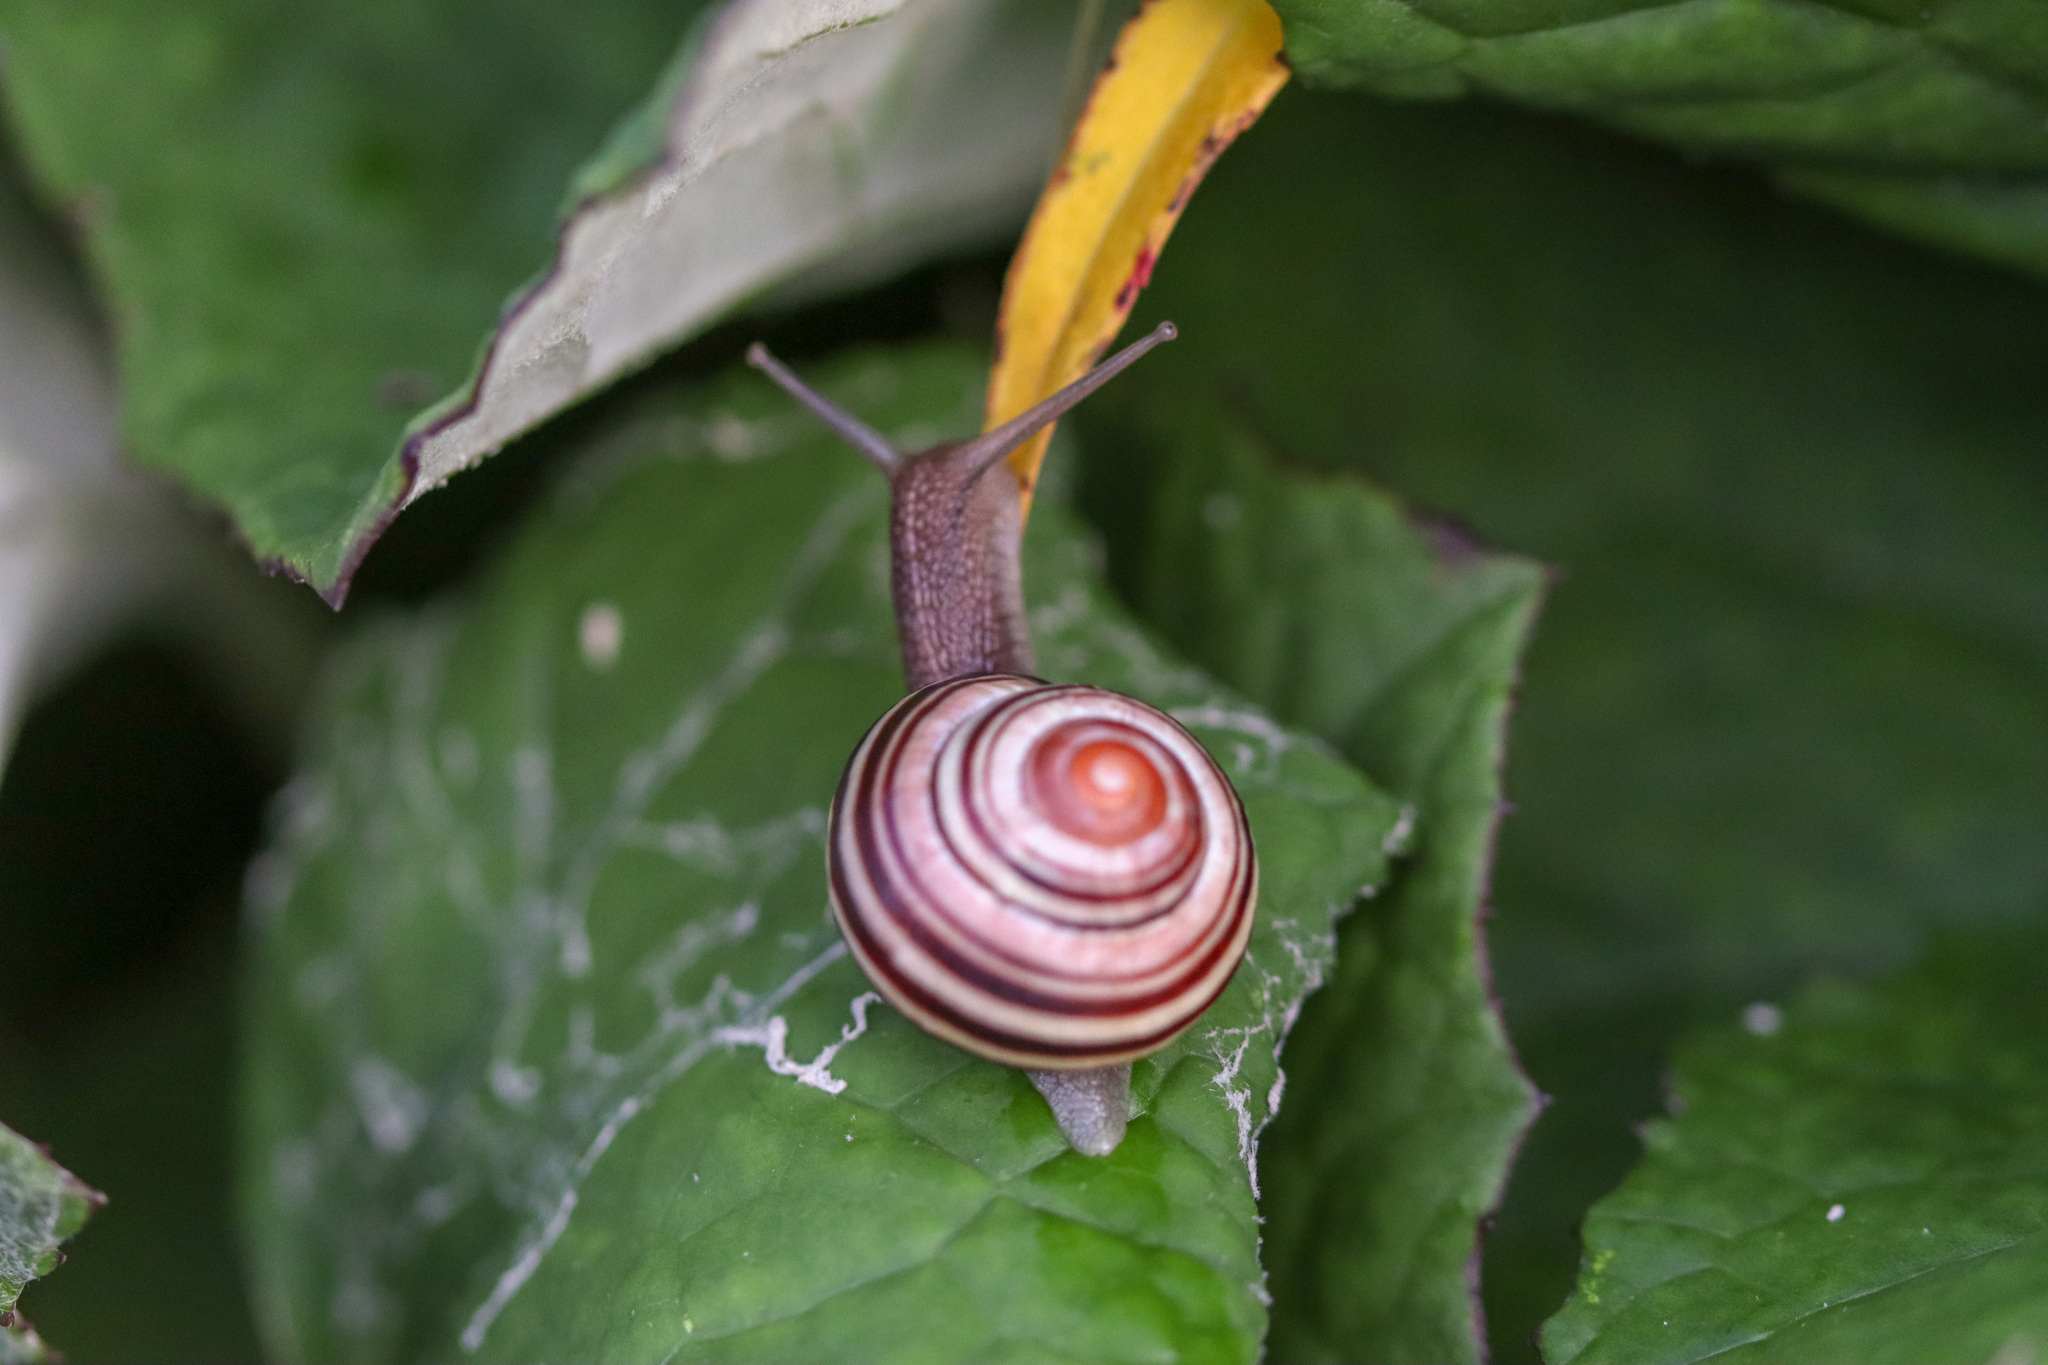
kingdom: Animalia
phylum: Mollusca
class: Gastropoda
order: Stylommatophora
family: Helicidae
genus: Cepaea
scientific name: Cepaea nemoralis
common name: Grovesnail
